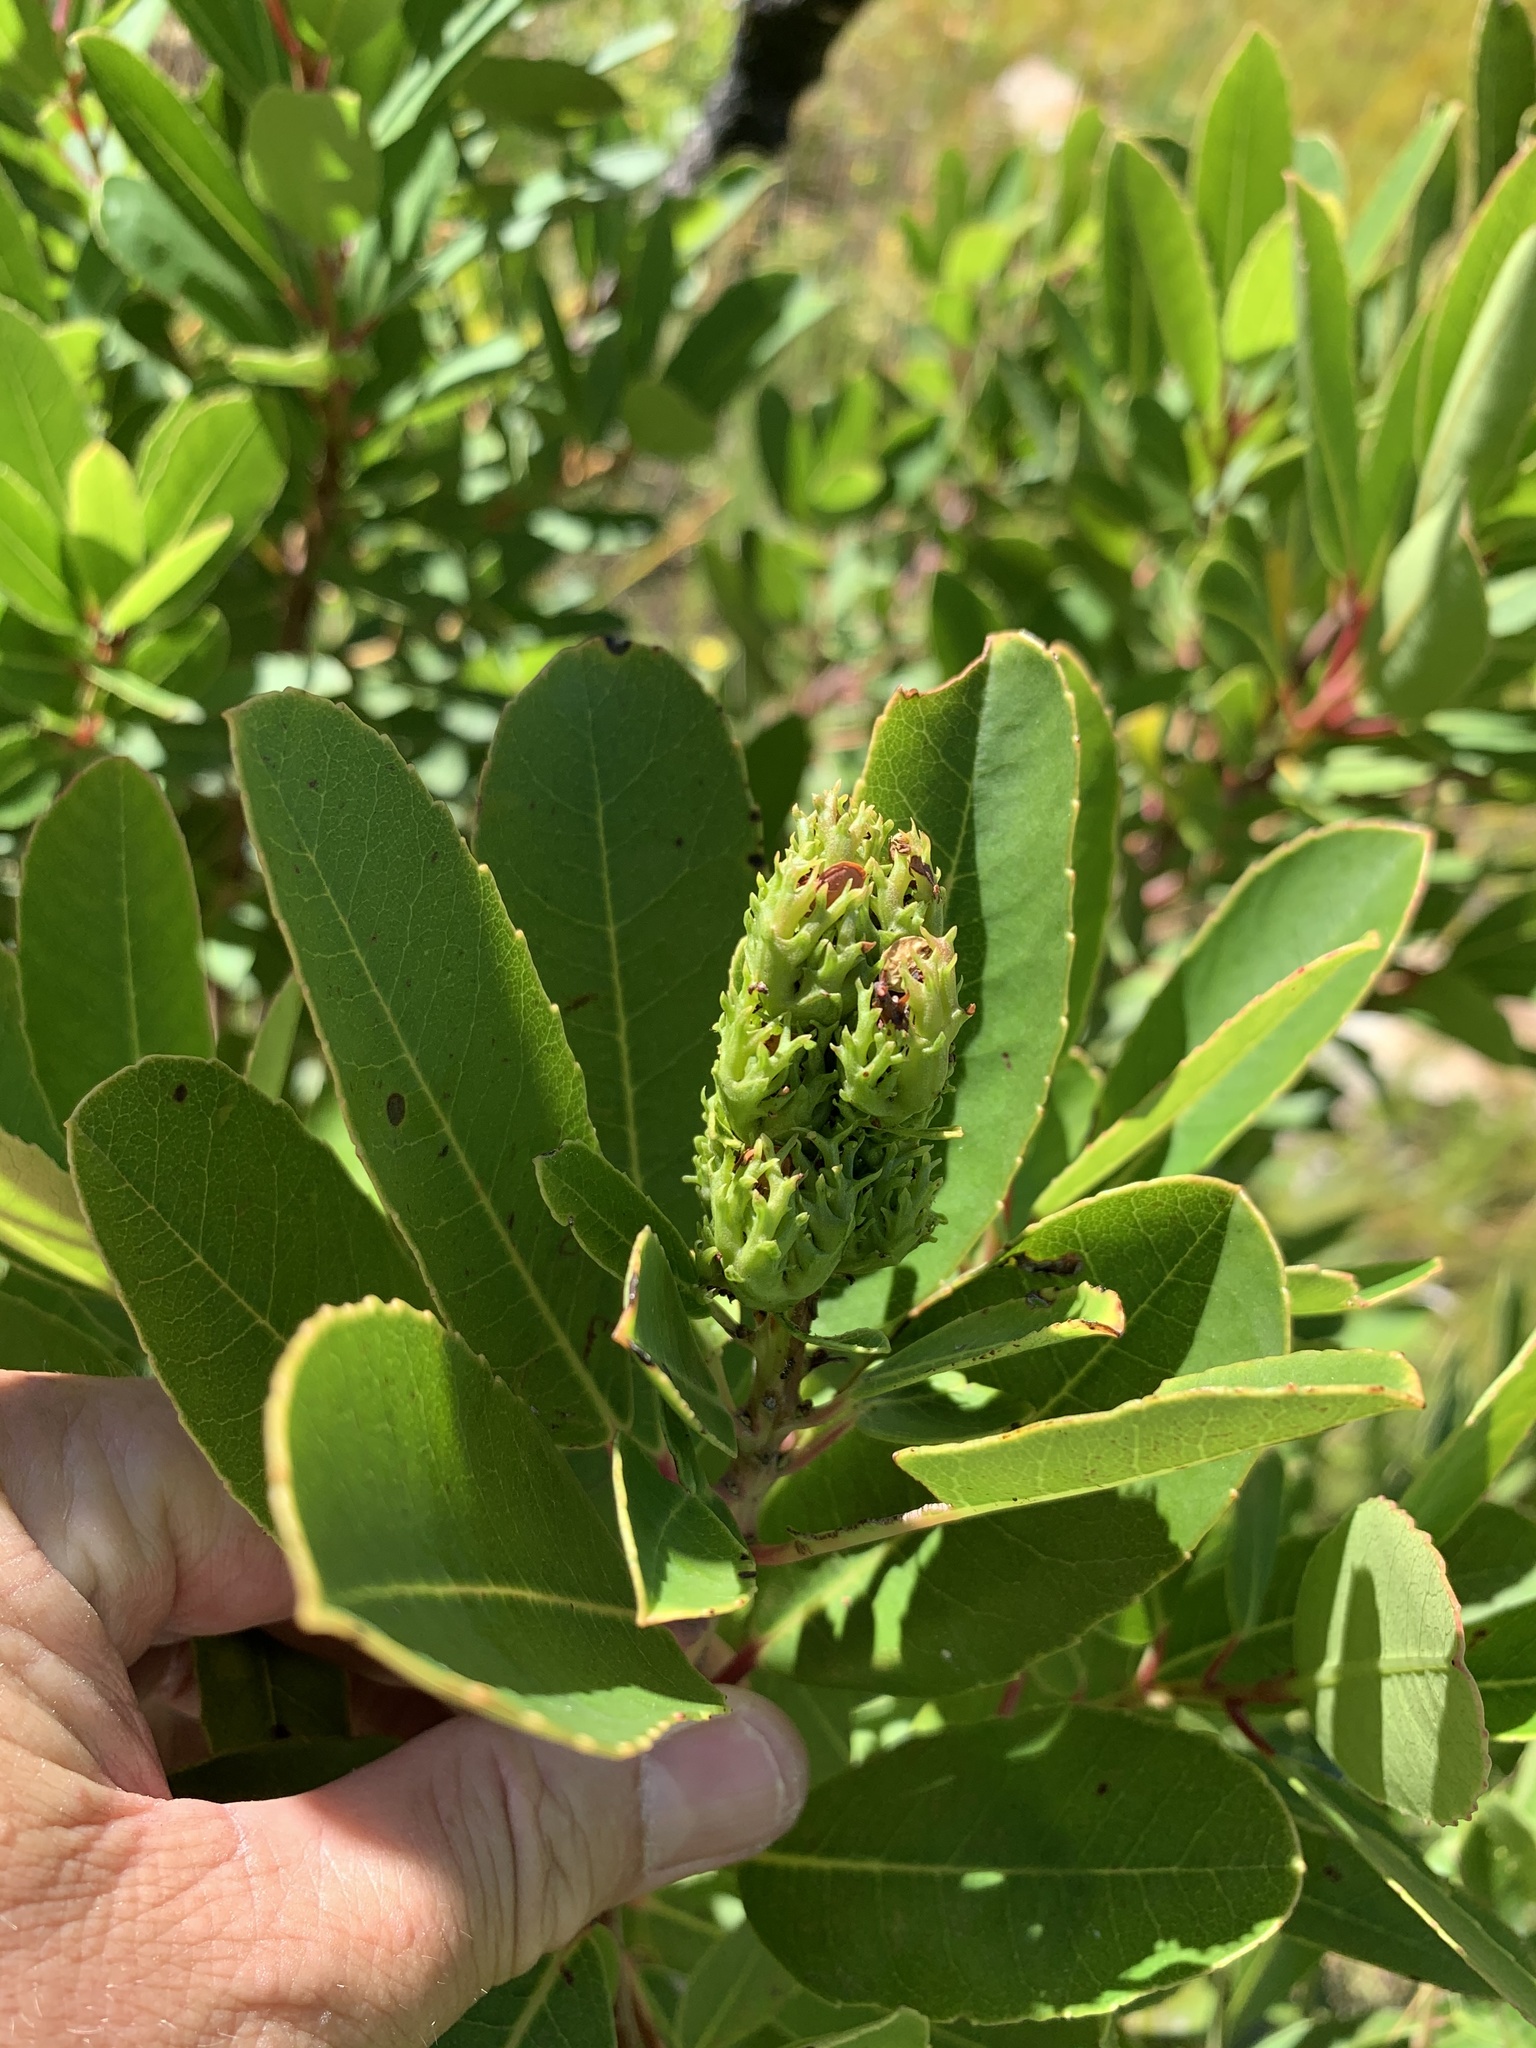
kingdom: Plantae
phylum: Tracheophyta
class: Magnoliopsida
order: Sapindales
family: Anacardiaceae
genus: Laurophyllus
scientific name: Laurophyllus capensis
